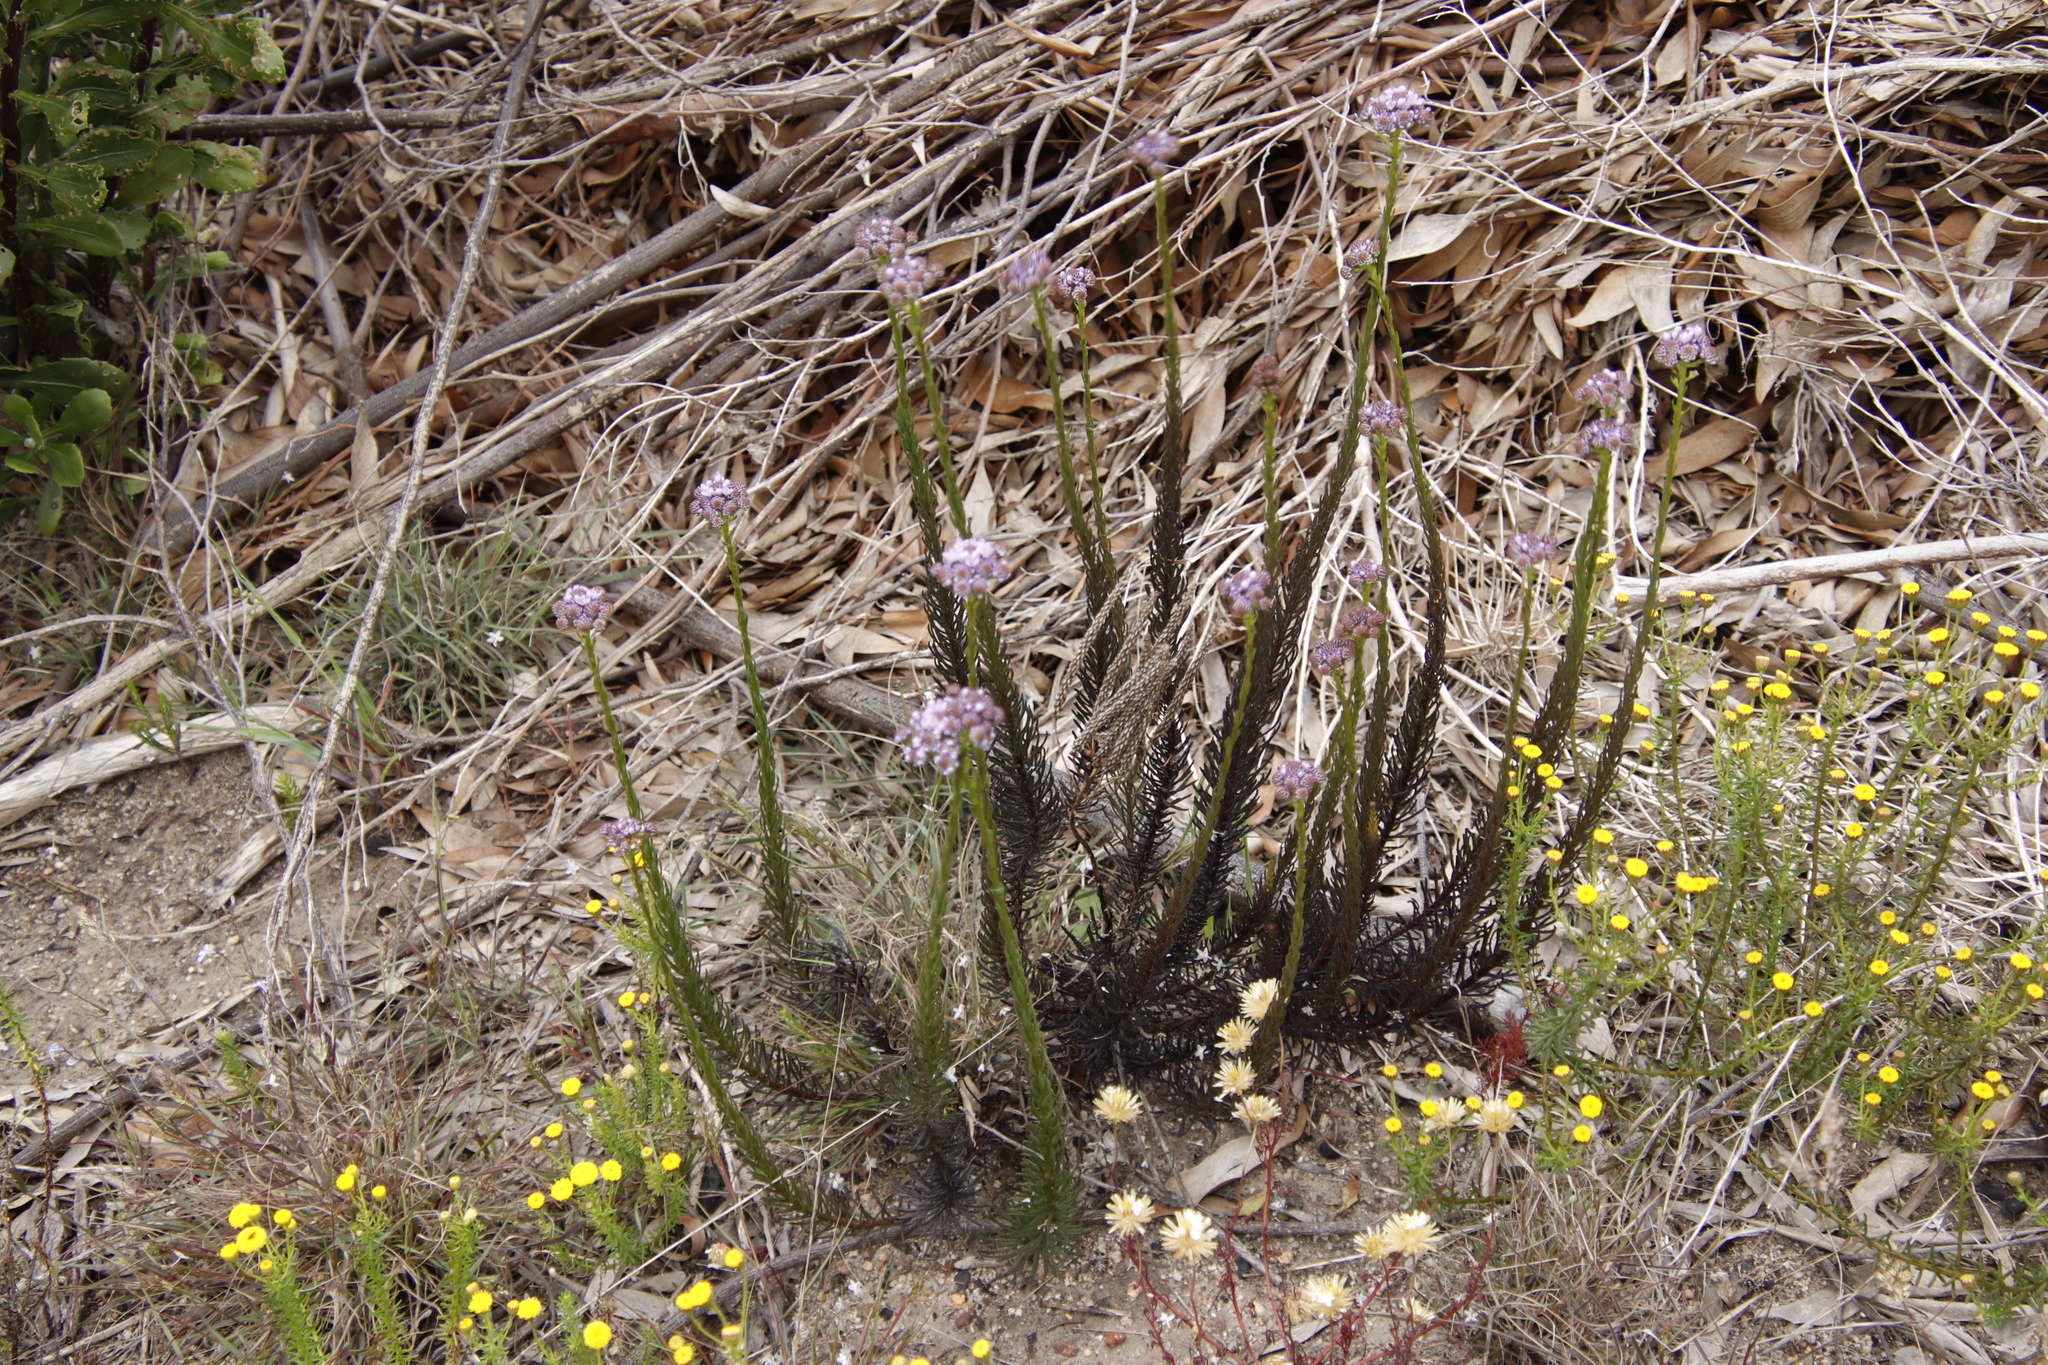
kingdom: Plantae
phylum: Tracheophyta
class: Magnoliopsida
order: Lamiales
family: Scrophulariaceae
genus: Pseudoselago
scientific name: Pseudoselago spuria
